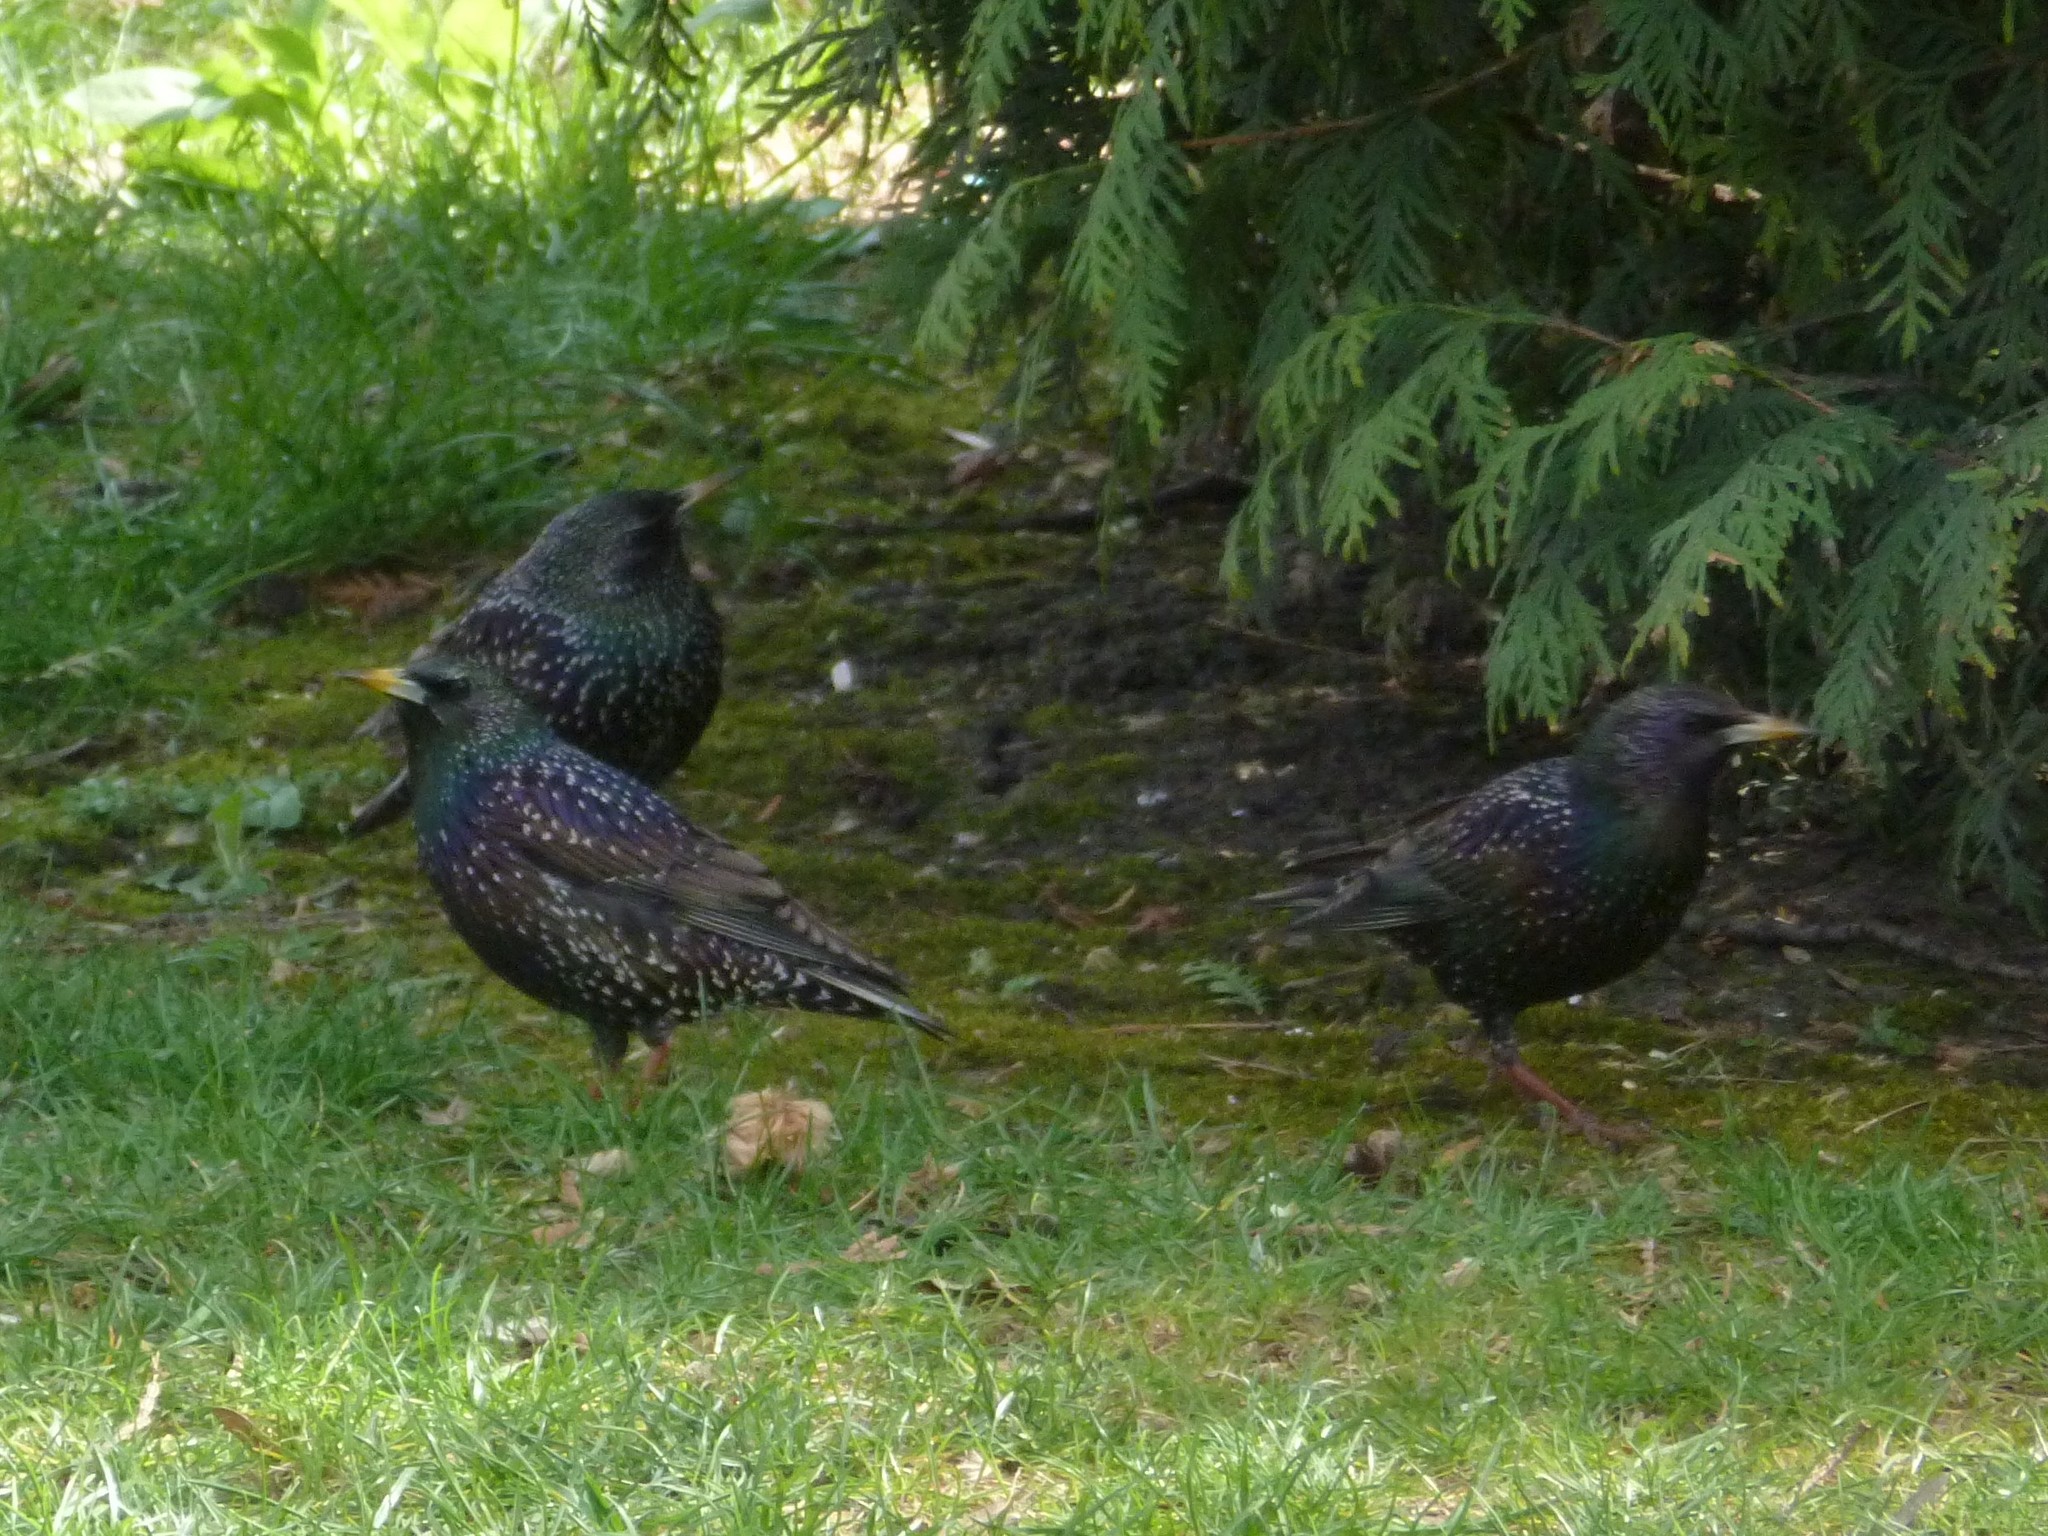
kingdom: Animalia
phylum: Chordata
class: Aves
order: Passeriformes
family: Sturnidae
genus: Sturnus
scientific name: Sturnus vulgaris
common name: Common starling
